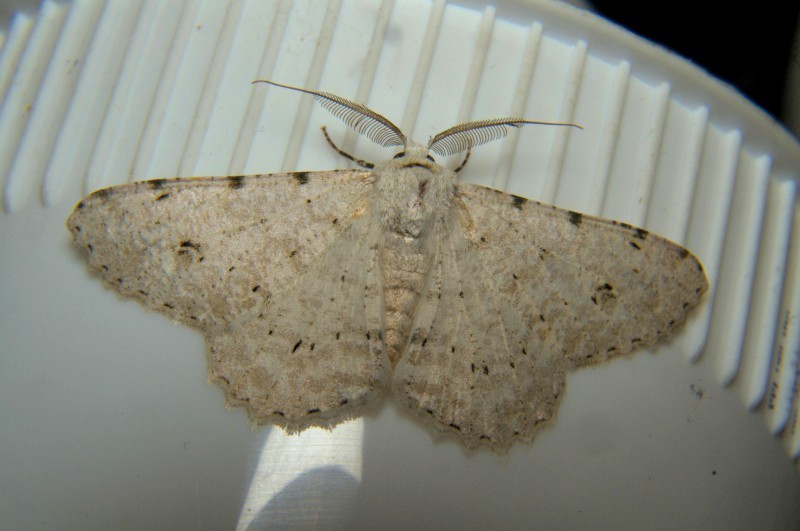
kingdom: Animalia
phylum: Arthropoda
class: Insecta
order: Lepidoptera
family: Geometridae
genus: Lassaba
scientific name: Lassaba albidaria
